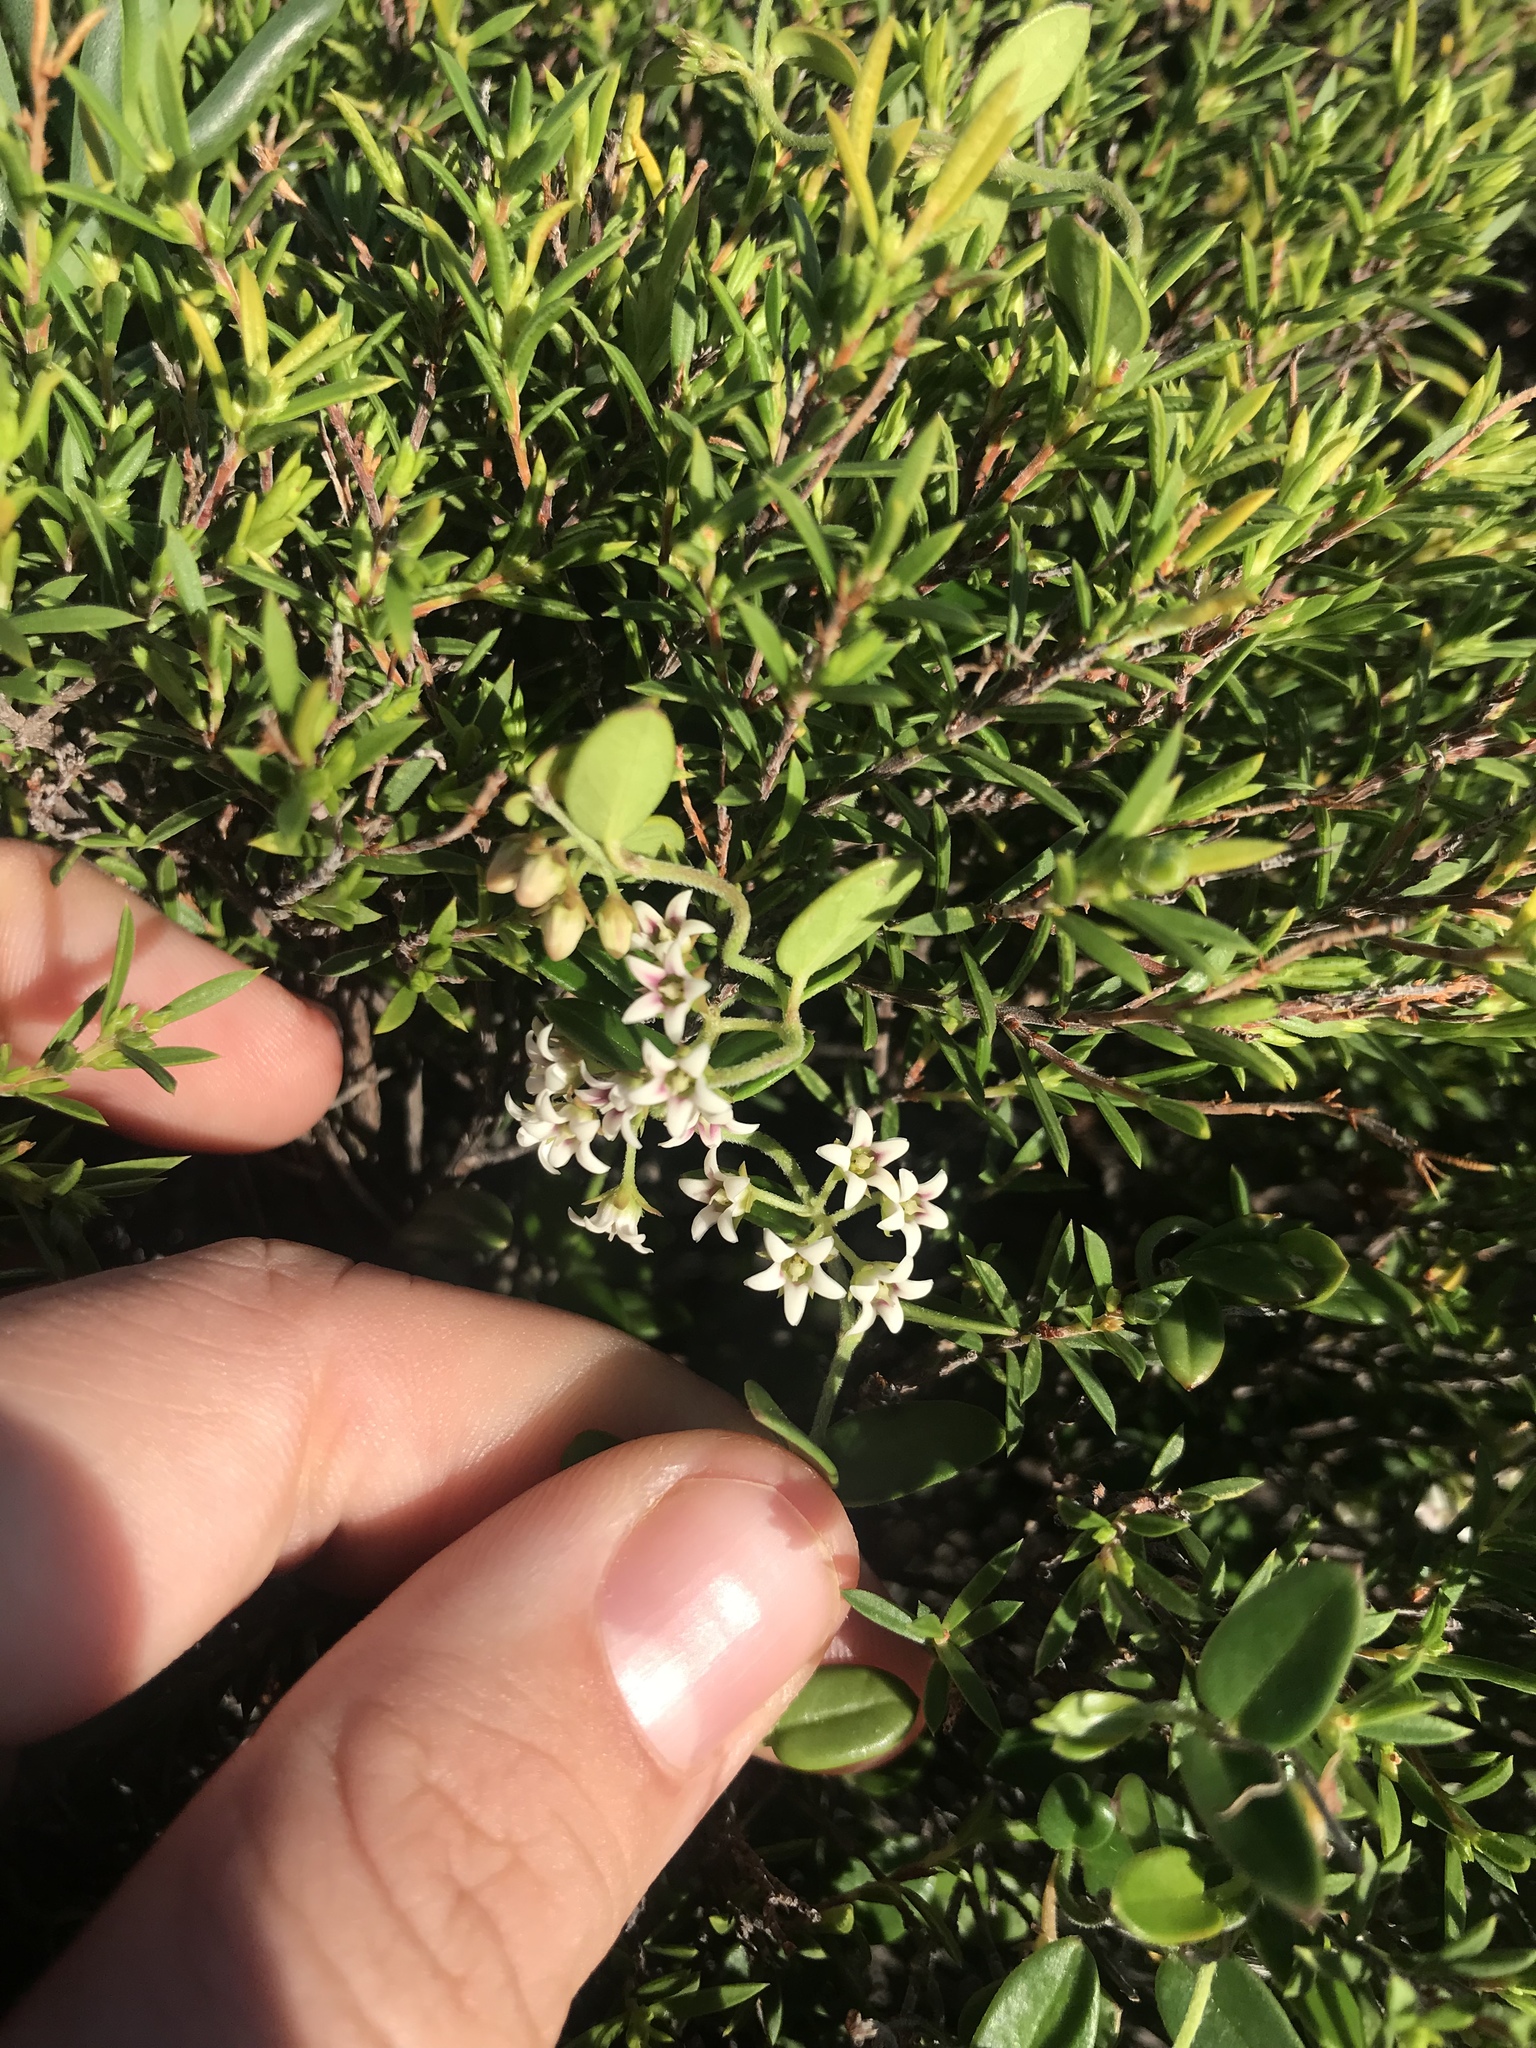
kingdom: Plantae
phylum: Tracheophyta
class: Magnoliopsida
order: Gentianales
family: Apocynaceae
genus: Astephanus
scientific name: Astephanus triflorus
